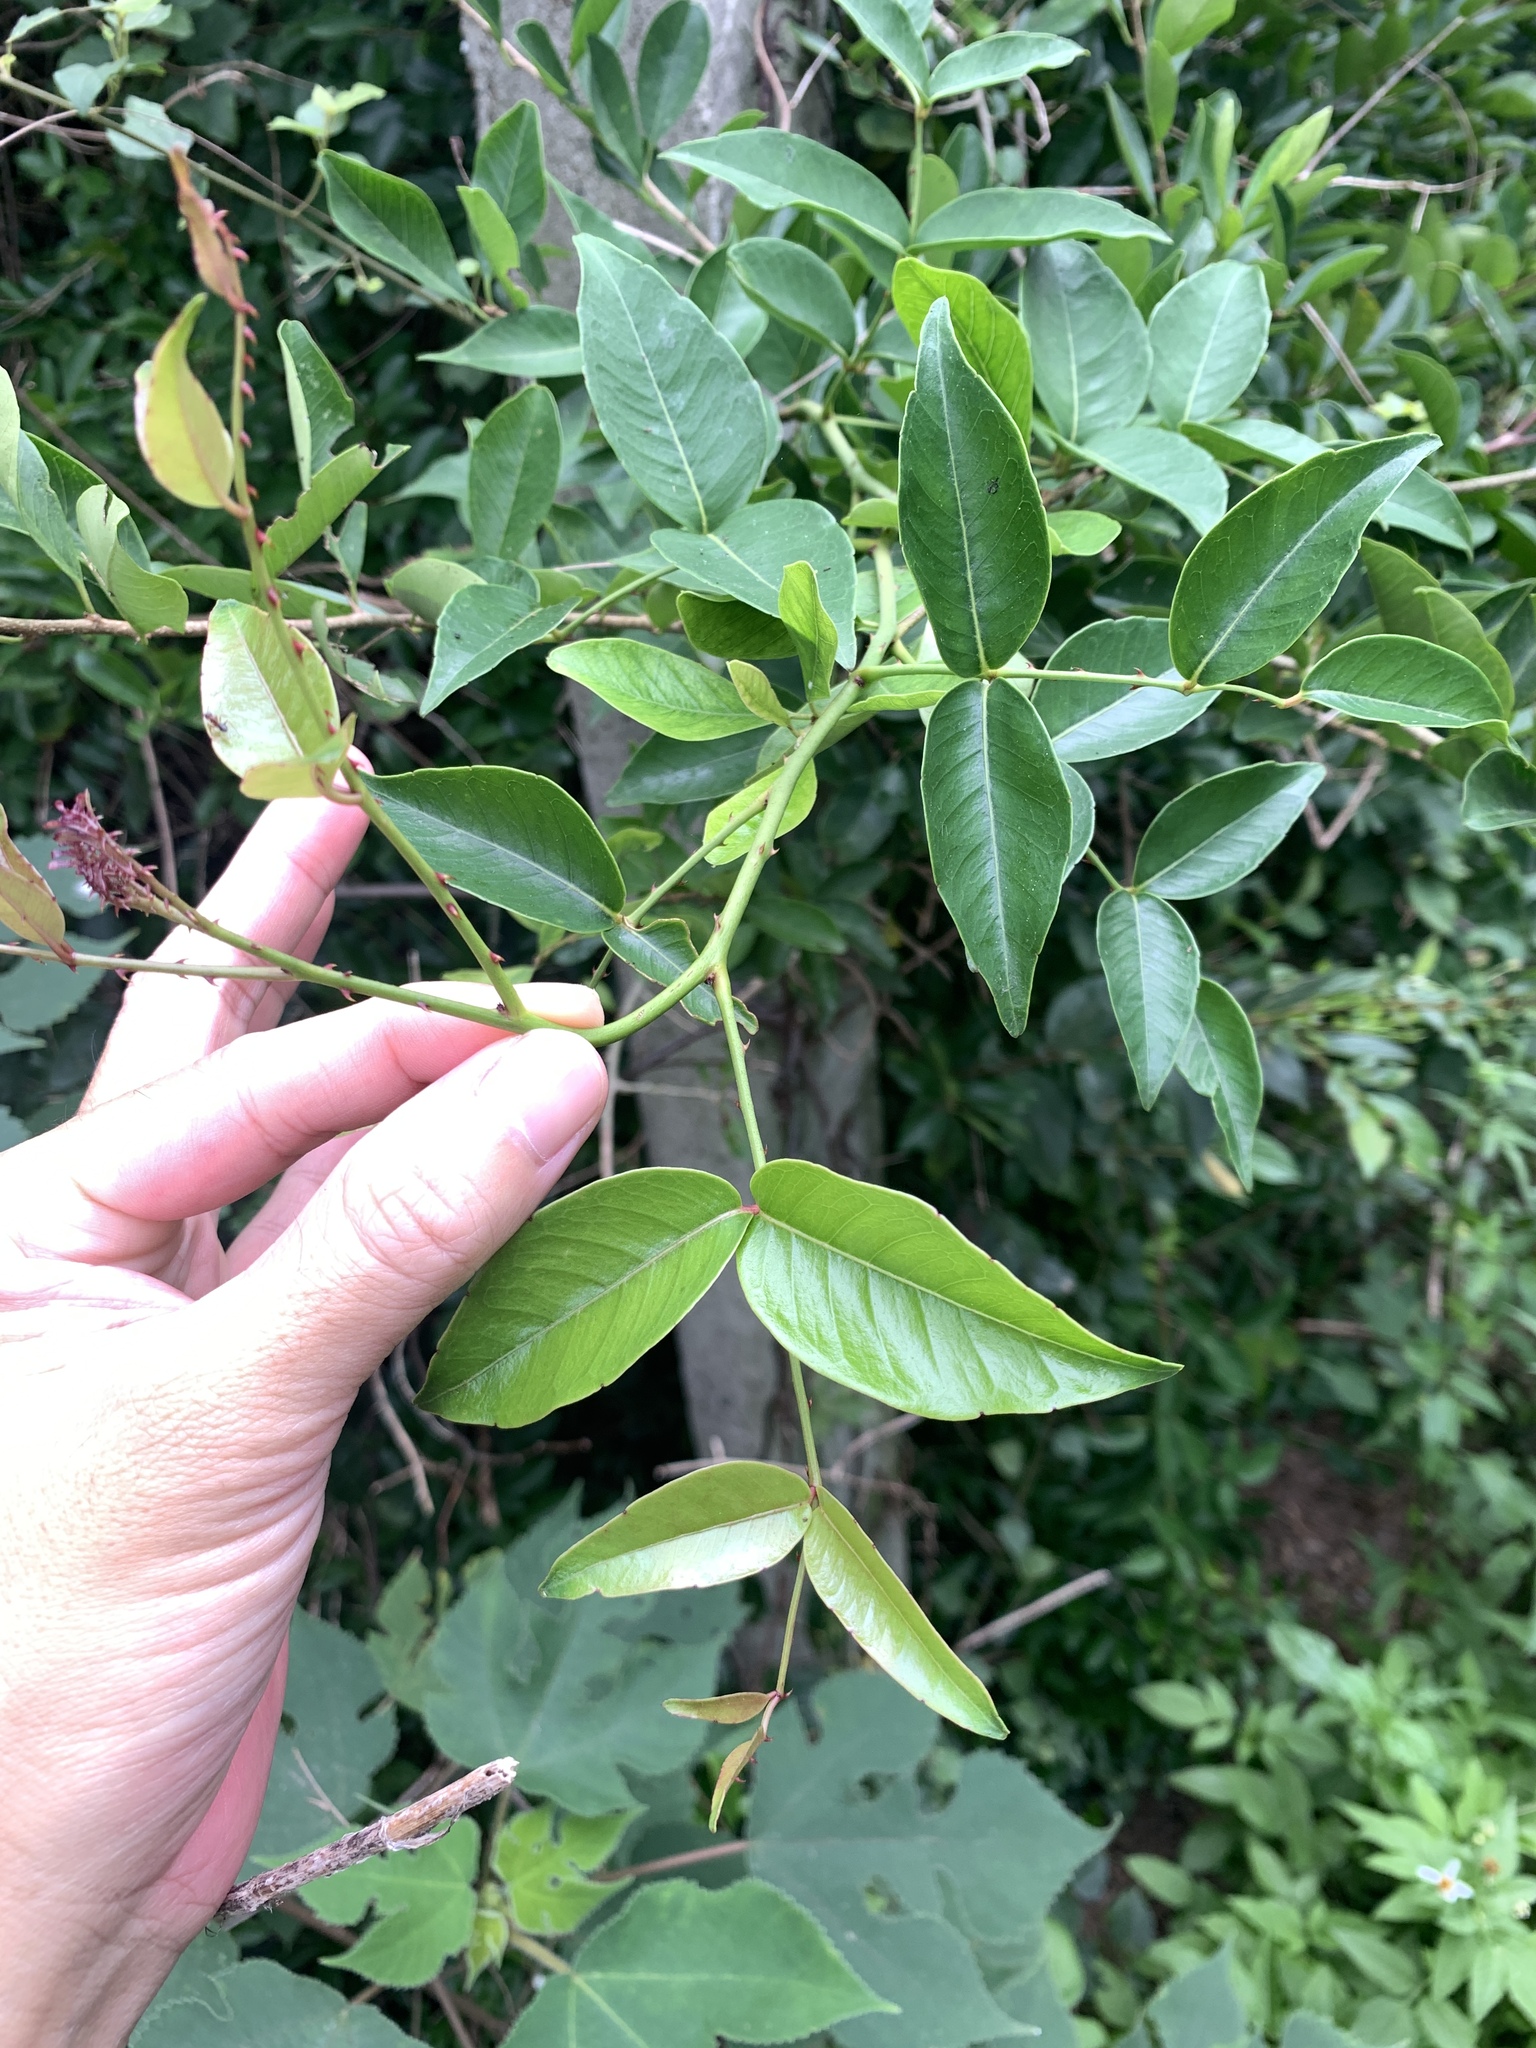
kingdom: Plantae
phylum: Tracheophyta
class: Magnoliopsida
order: Sapindales
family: Rutaceae
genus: Zanthoxylum
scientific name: Zanthoxylum nitidum
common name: Shiny-leaf prickly-ash
